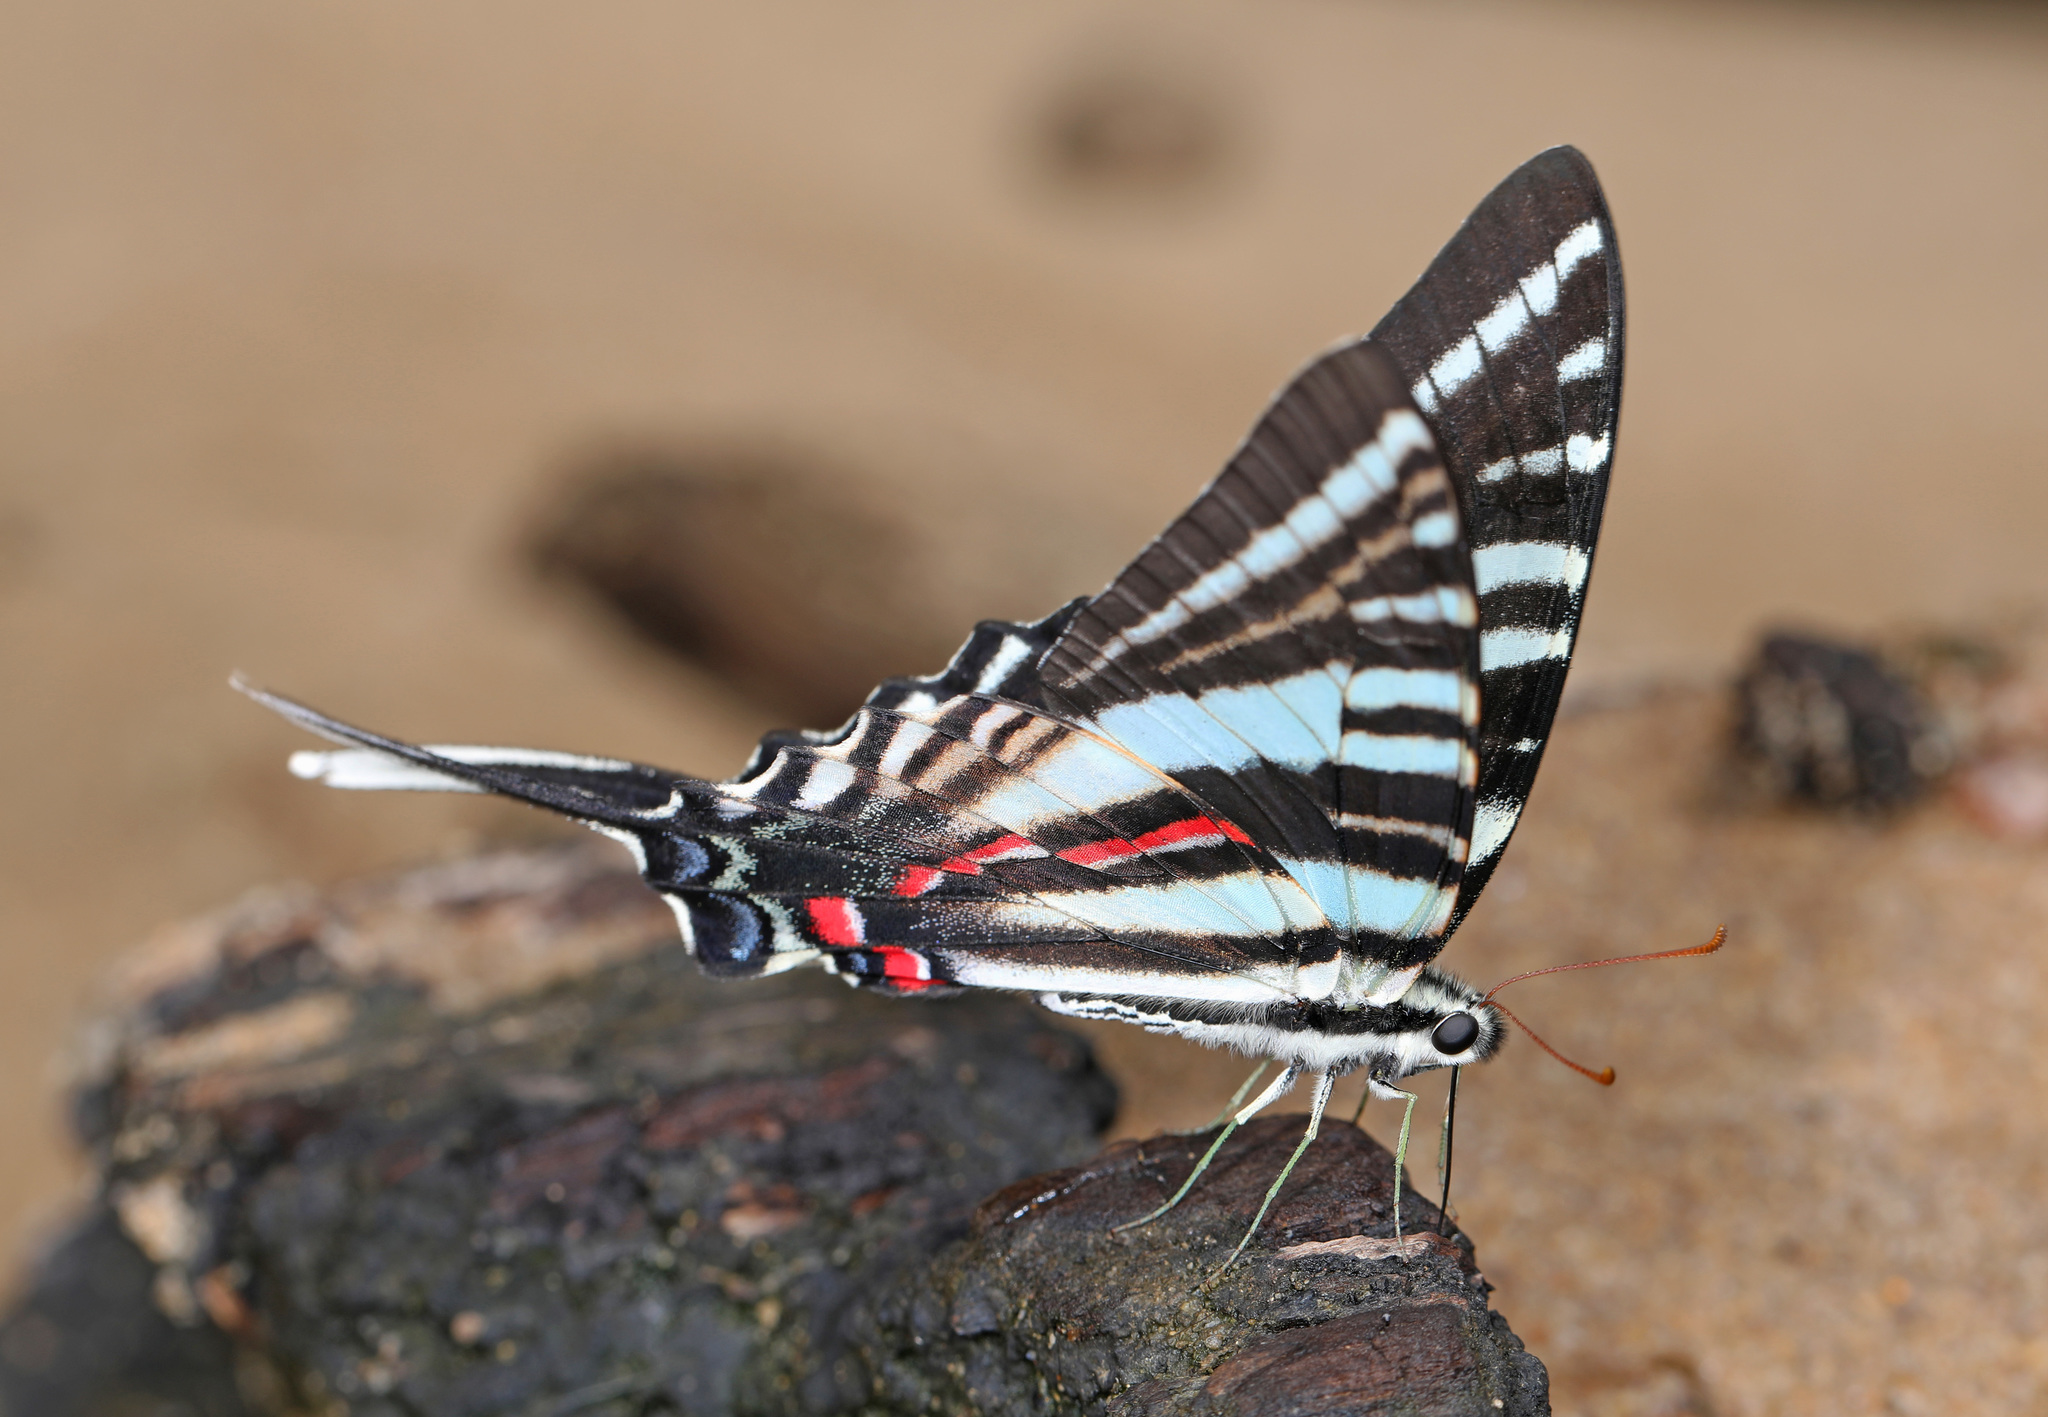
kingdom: Animalia
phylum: Arthropoda
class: Insecta
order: Lepidoptera
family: Papilionidae
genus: Protographium
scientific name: Protographium marcellus
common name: Zebra swallowtail
